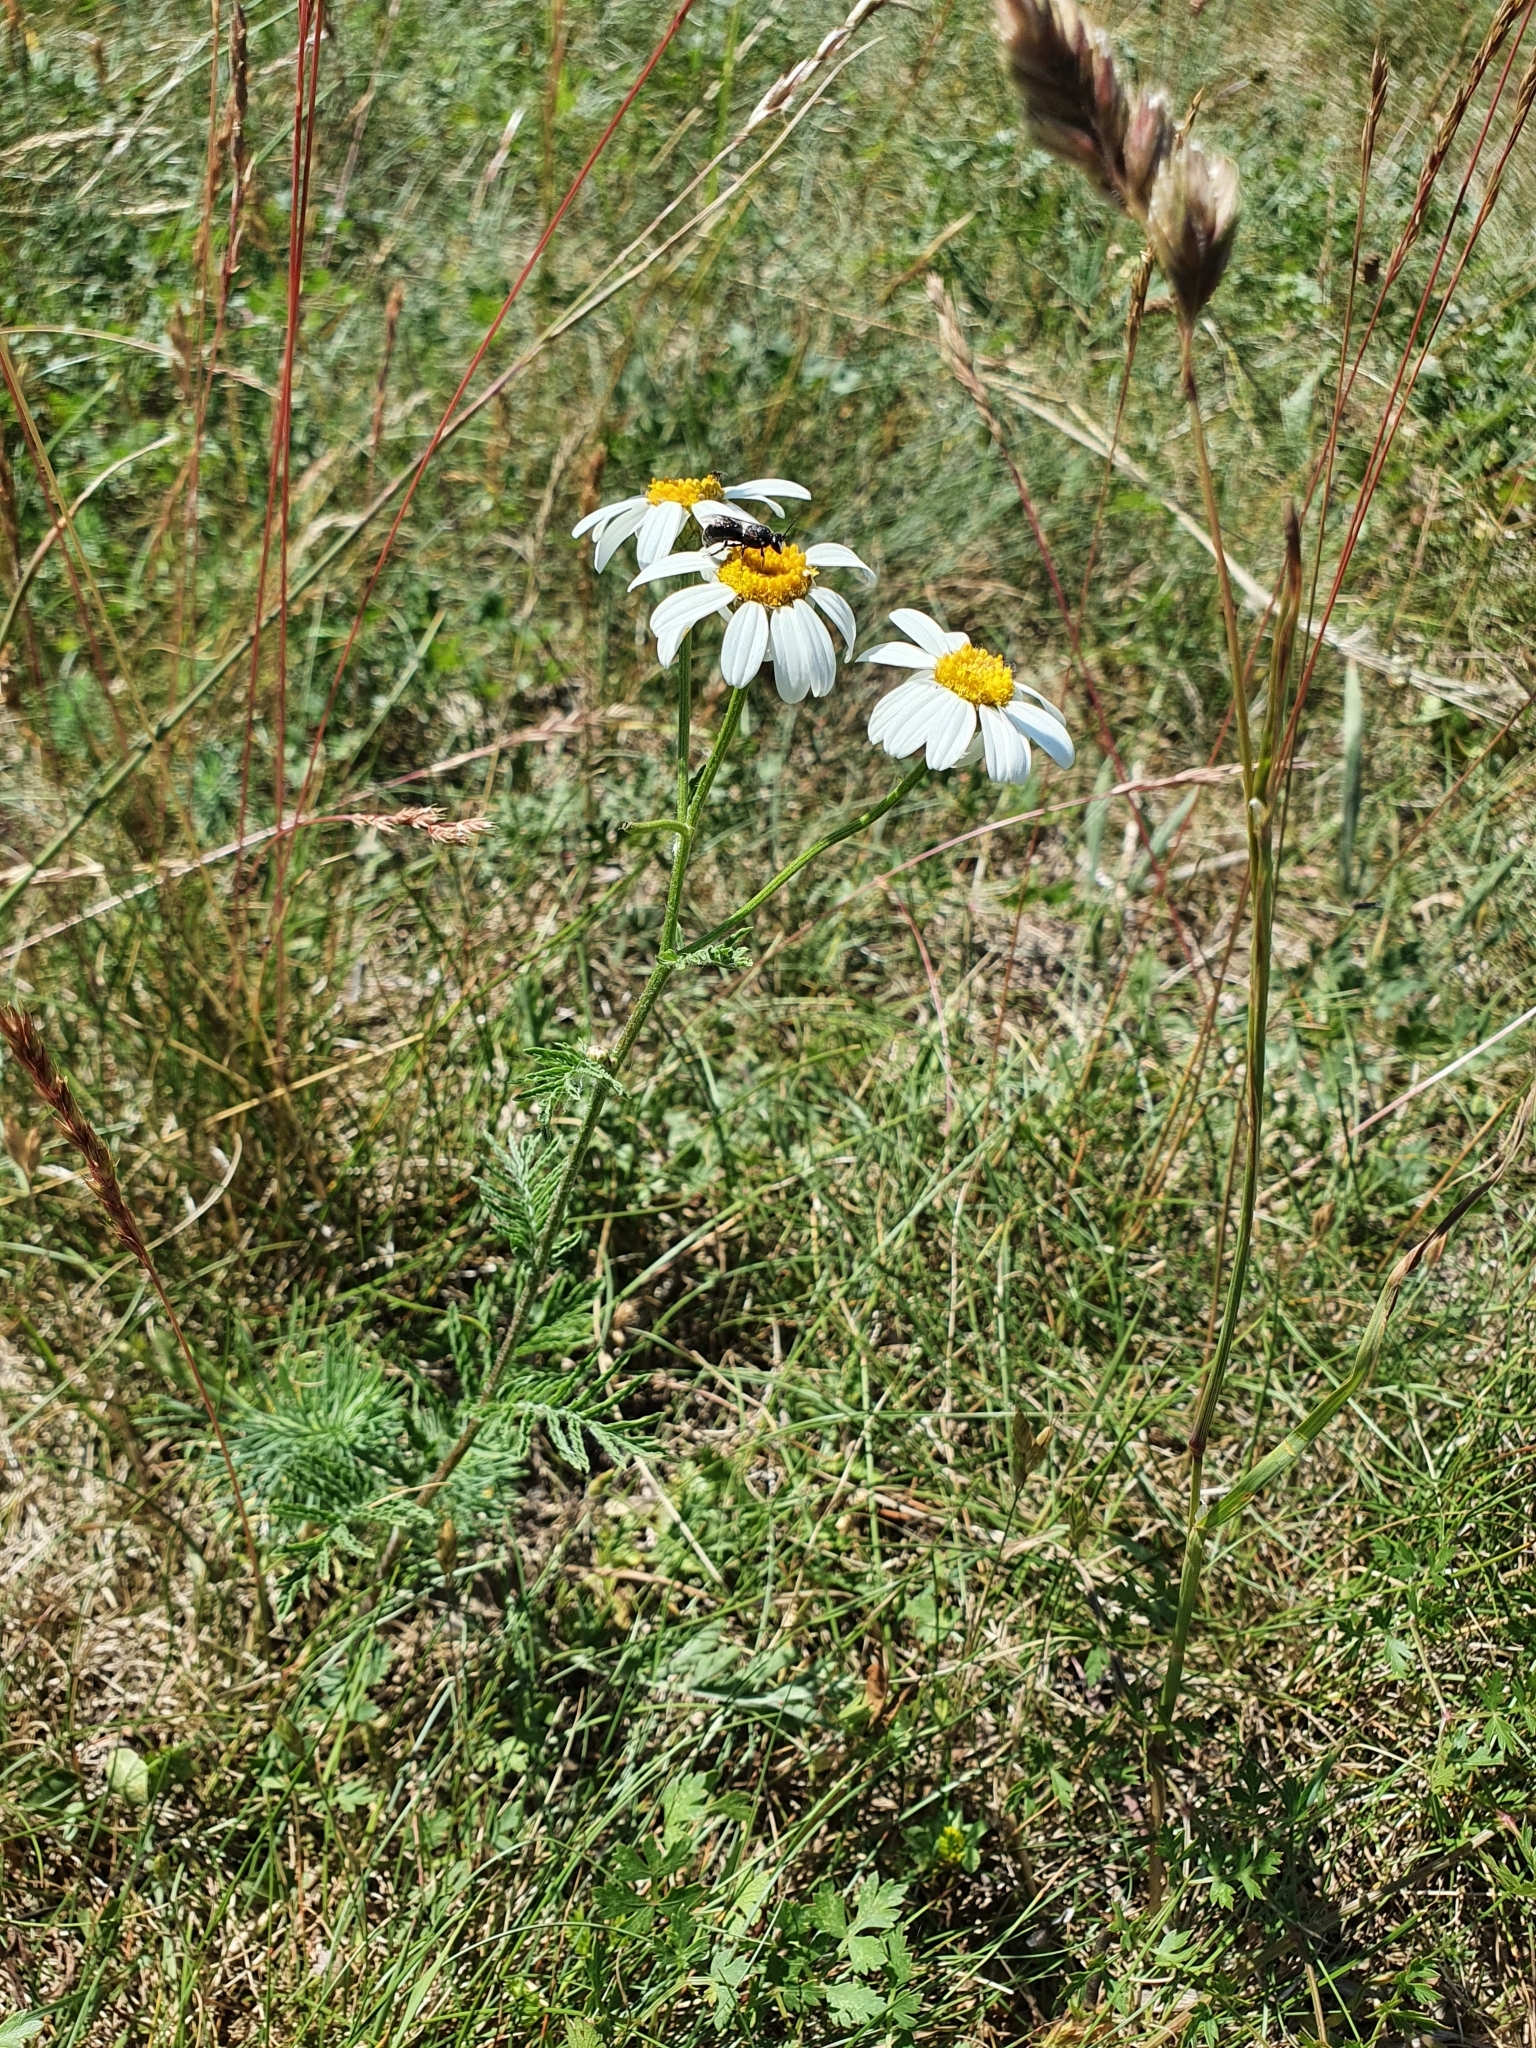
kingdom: Plantae
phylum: Tracheophyta
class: Magnoliopsida
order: Asterales
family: Asteraceae
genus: Tanacetum
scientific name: Tanacetum corymbosum
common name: Scentless feverfew
